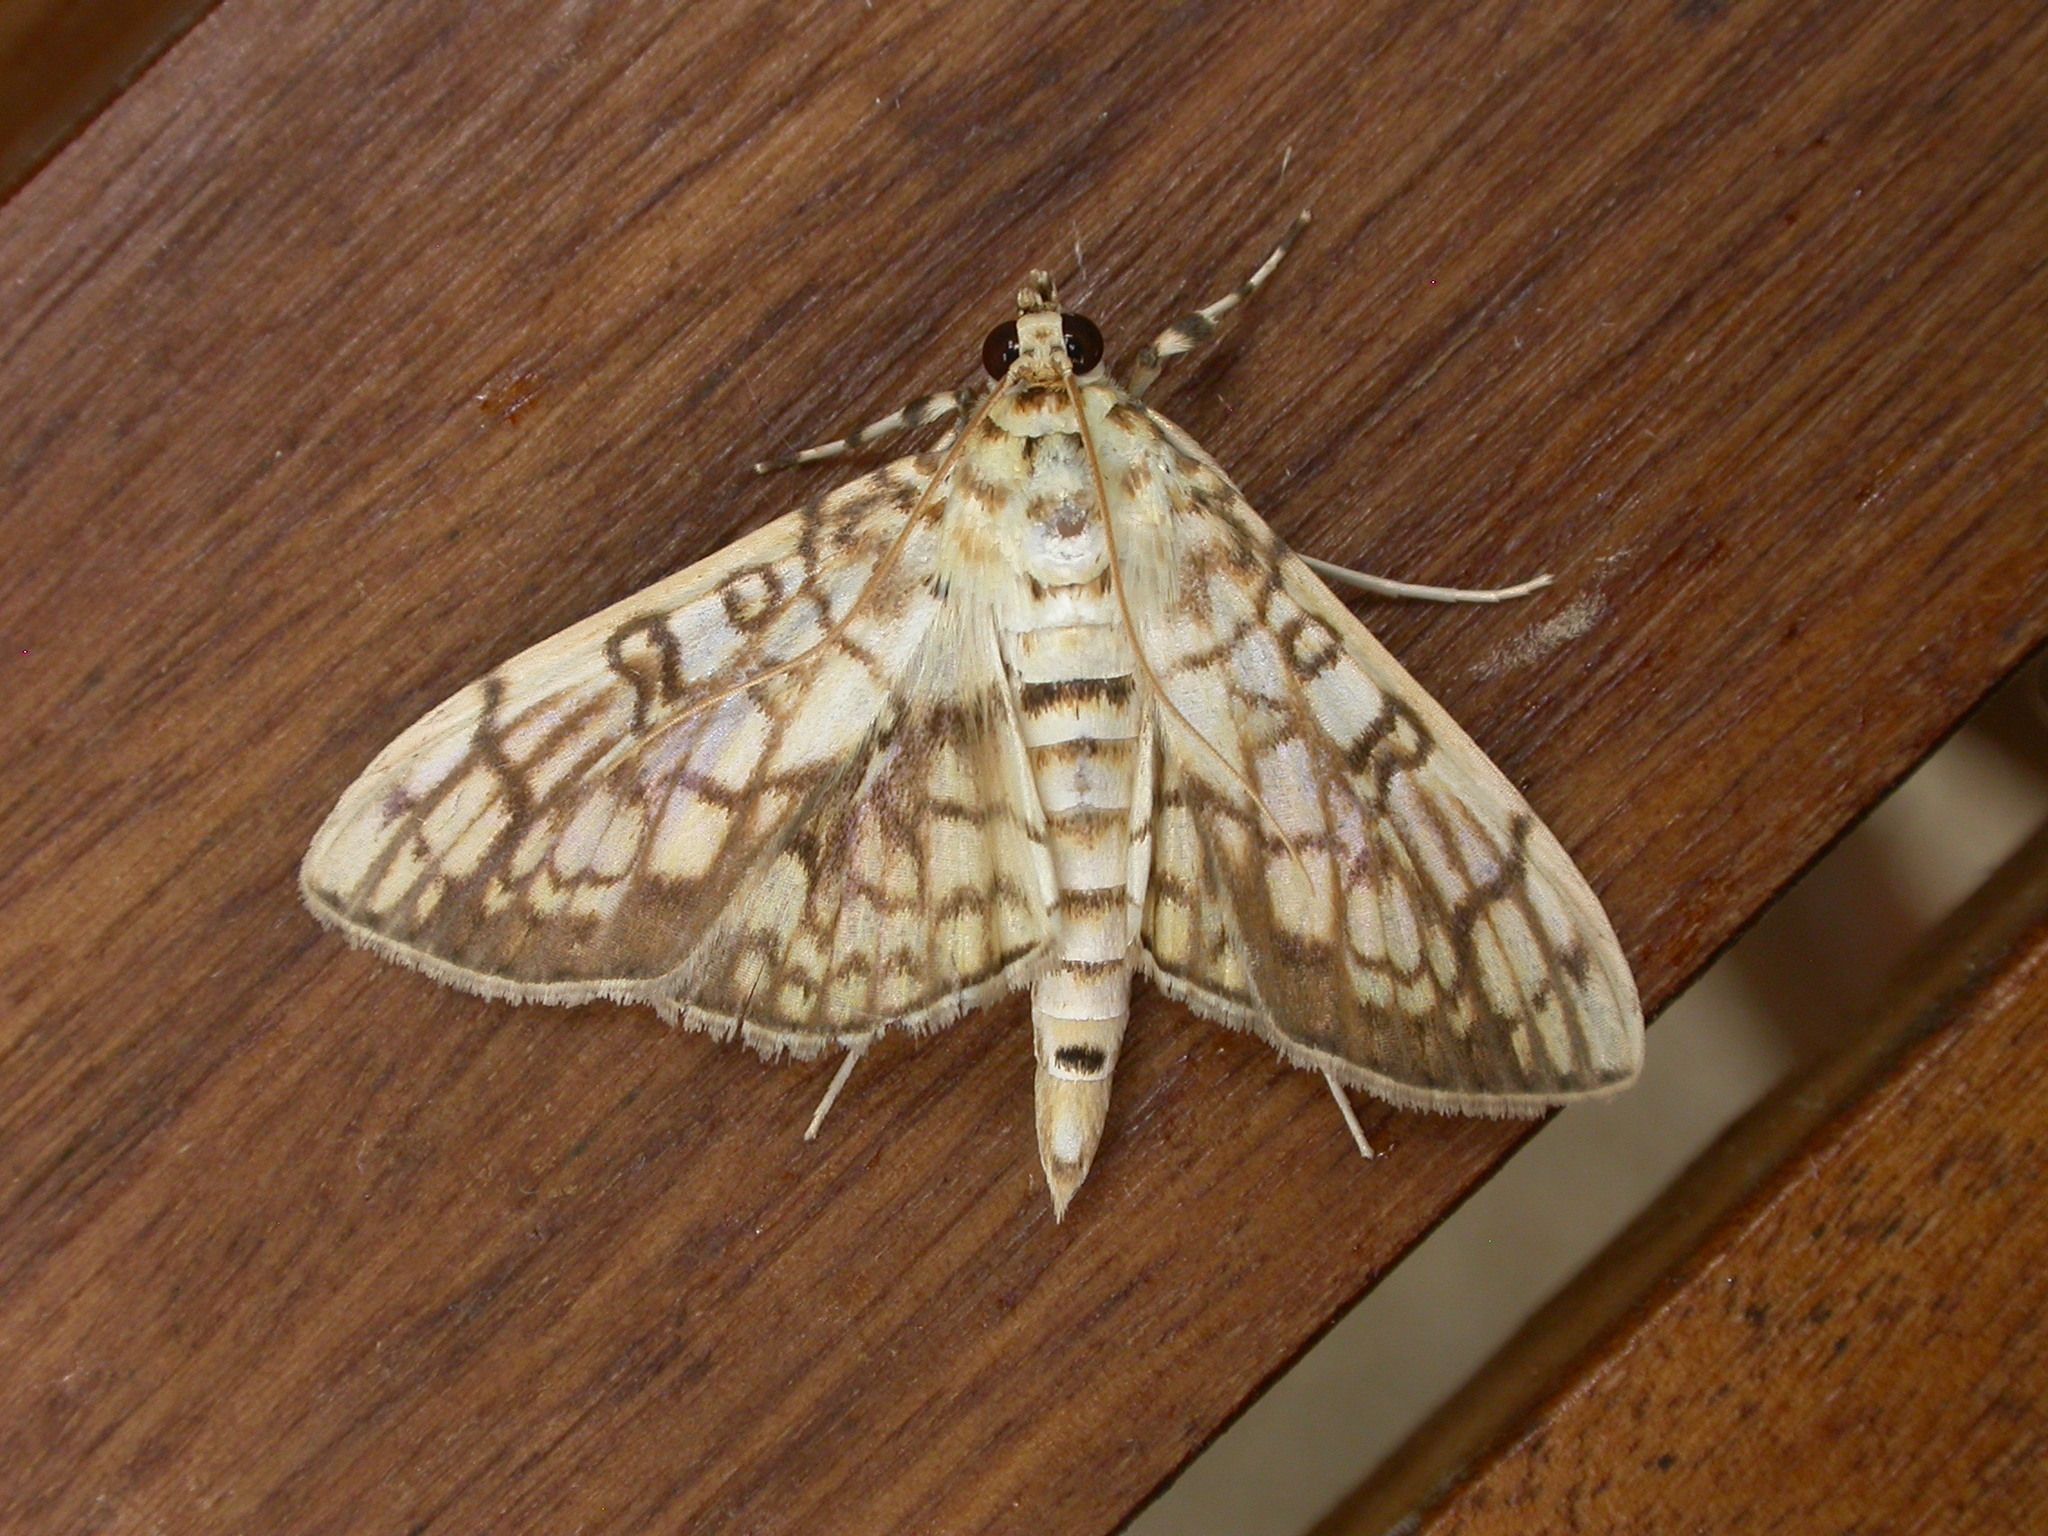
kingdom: Animalia
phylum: Arthropoda
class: Insecta
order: Lepidoptera
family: Crambidae
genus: Haritalodes
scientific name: Haritalodes derogata
